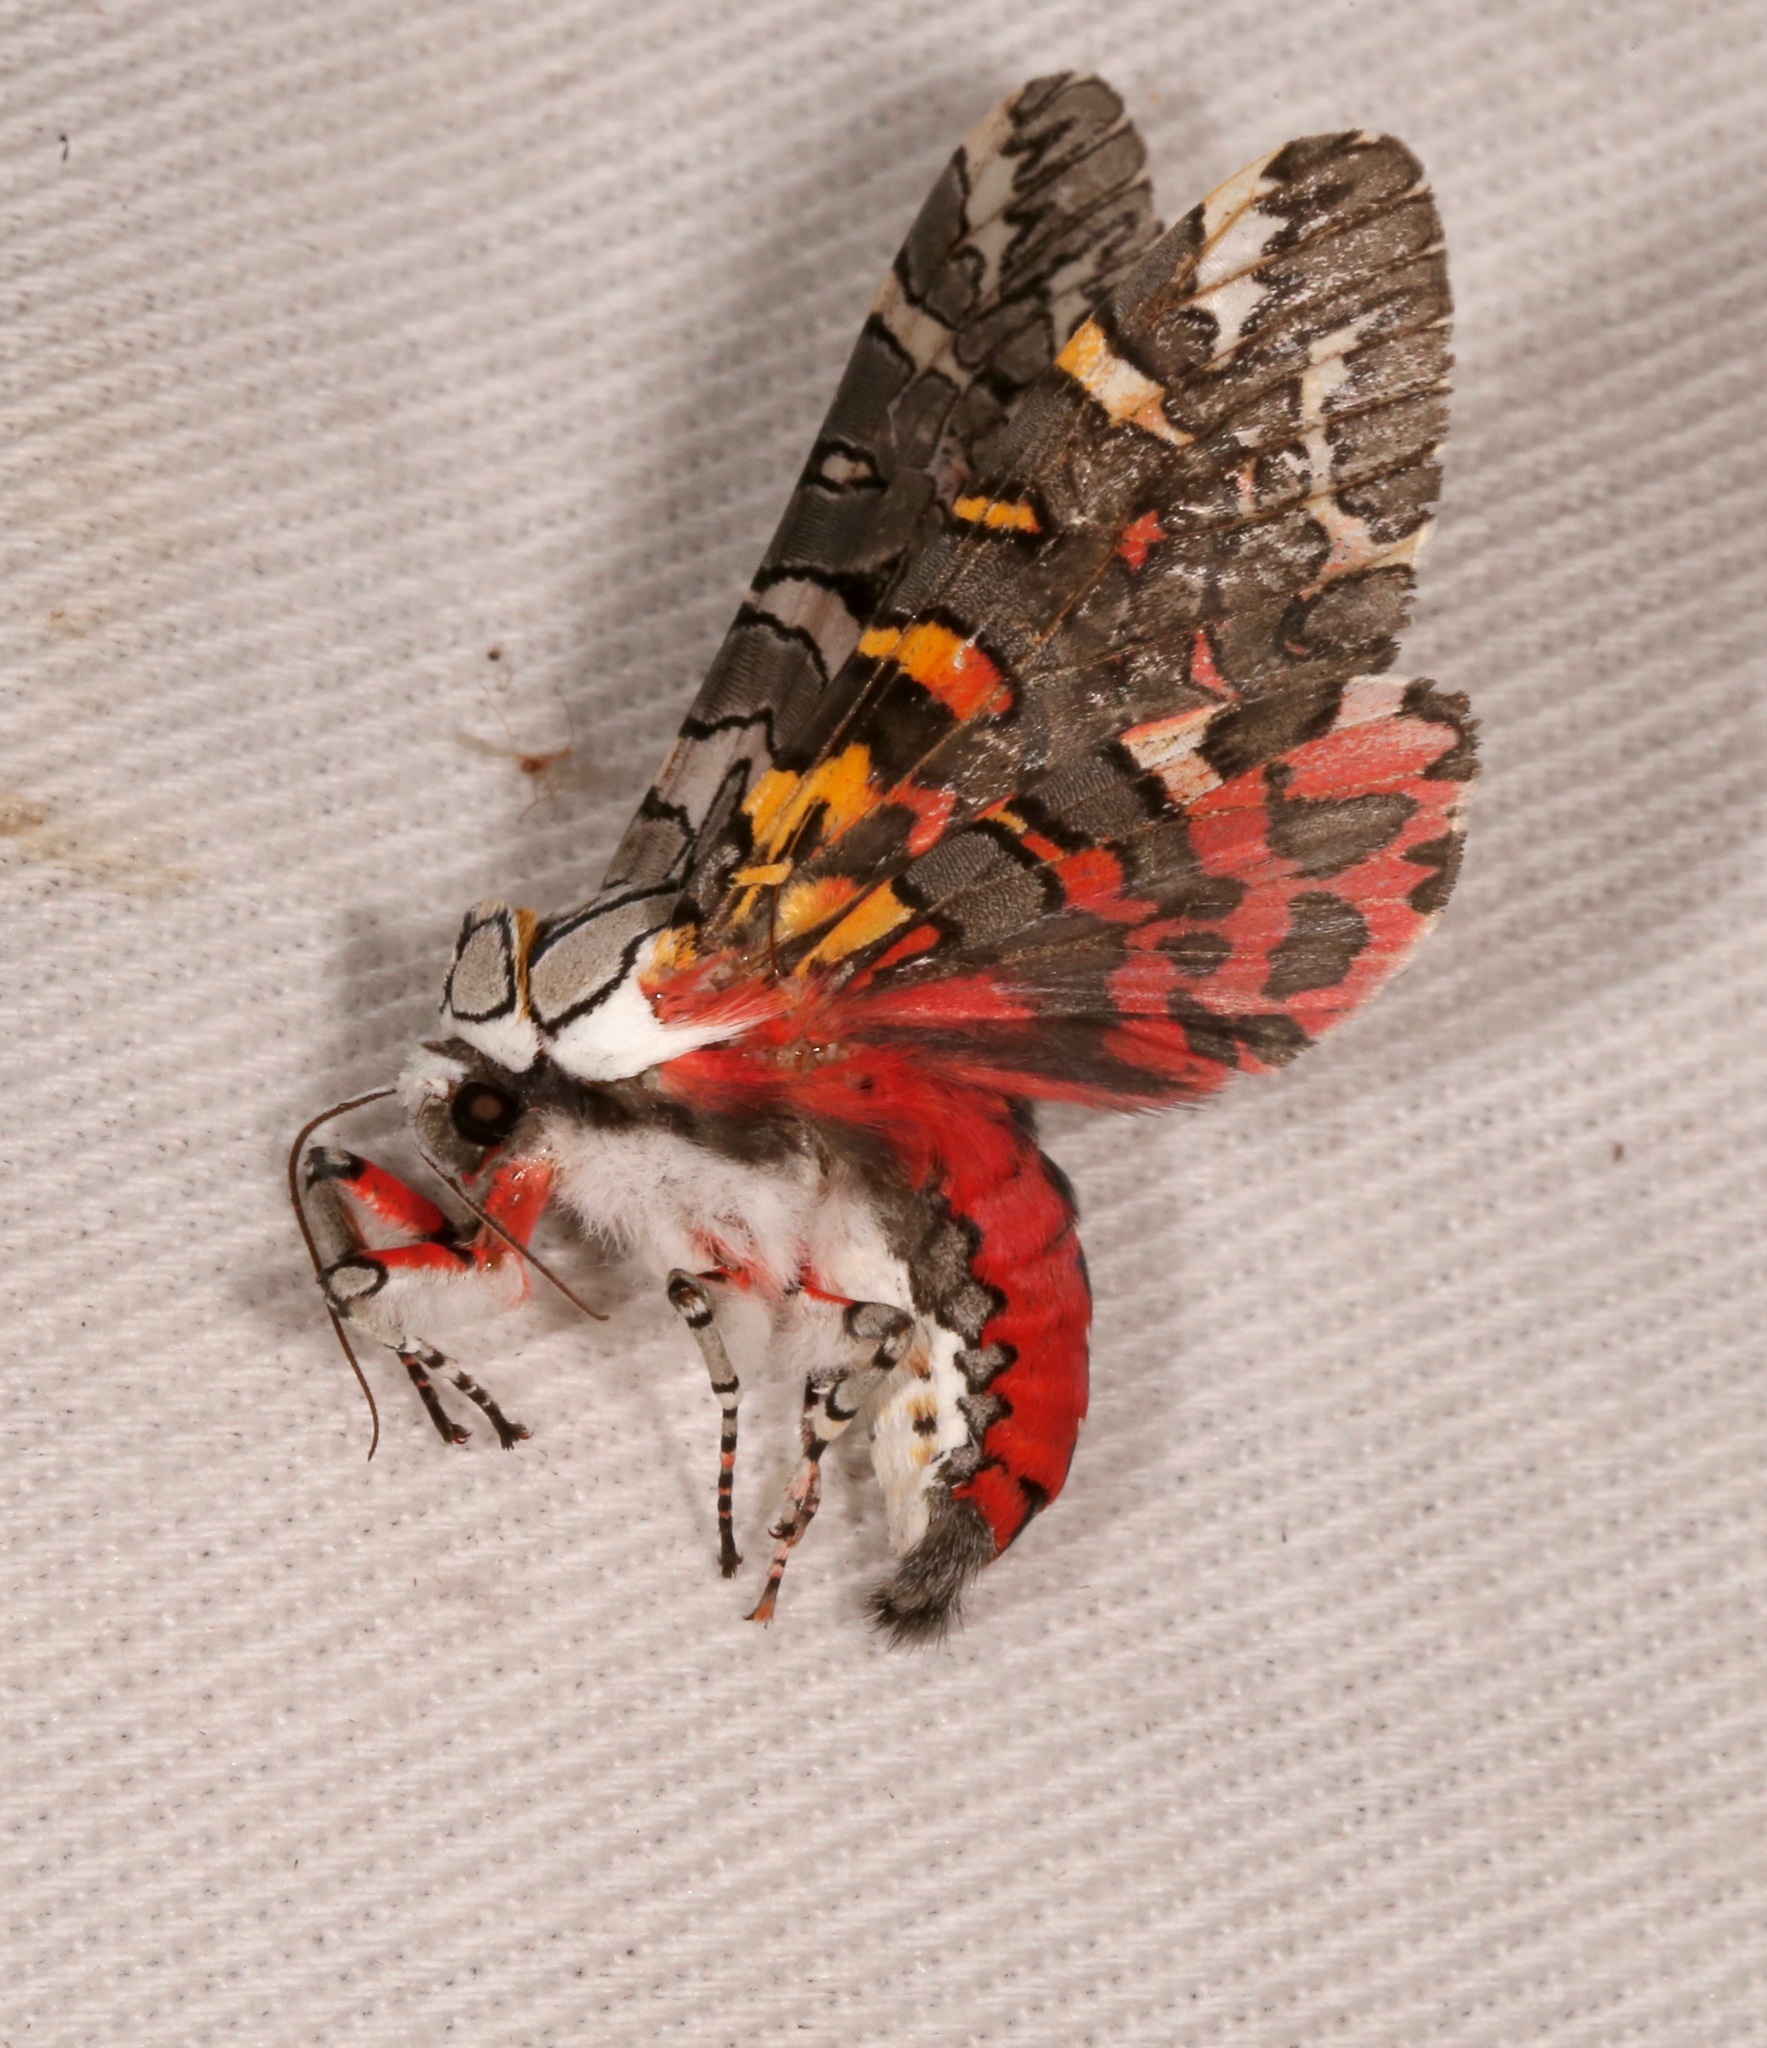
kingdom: Animalia
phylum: Arthropoda
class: Insecta
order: Lepidoptera
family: Erebidae
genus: Arachnis
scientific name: Arachnis picta
